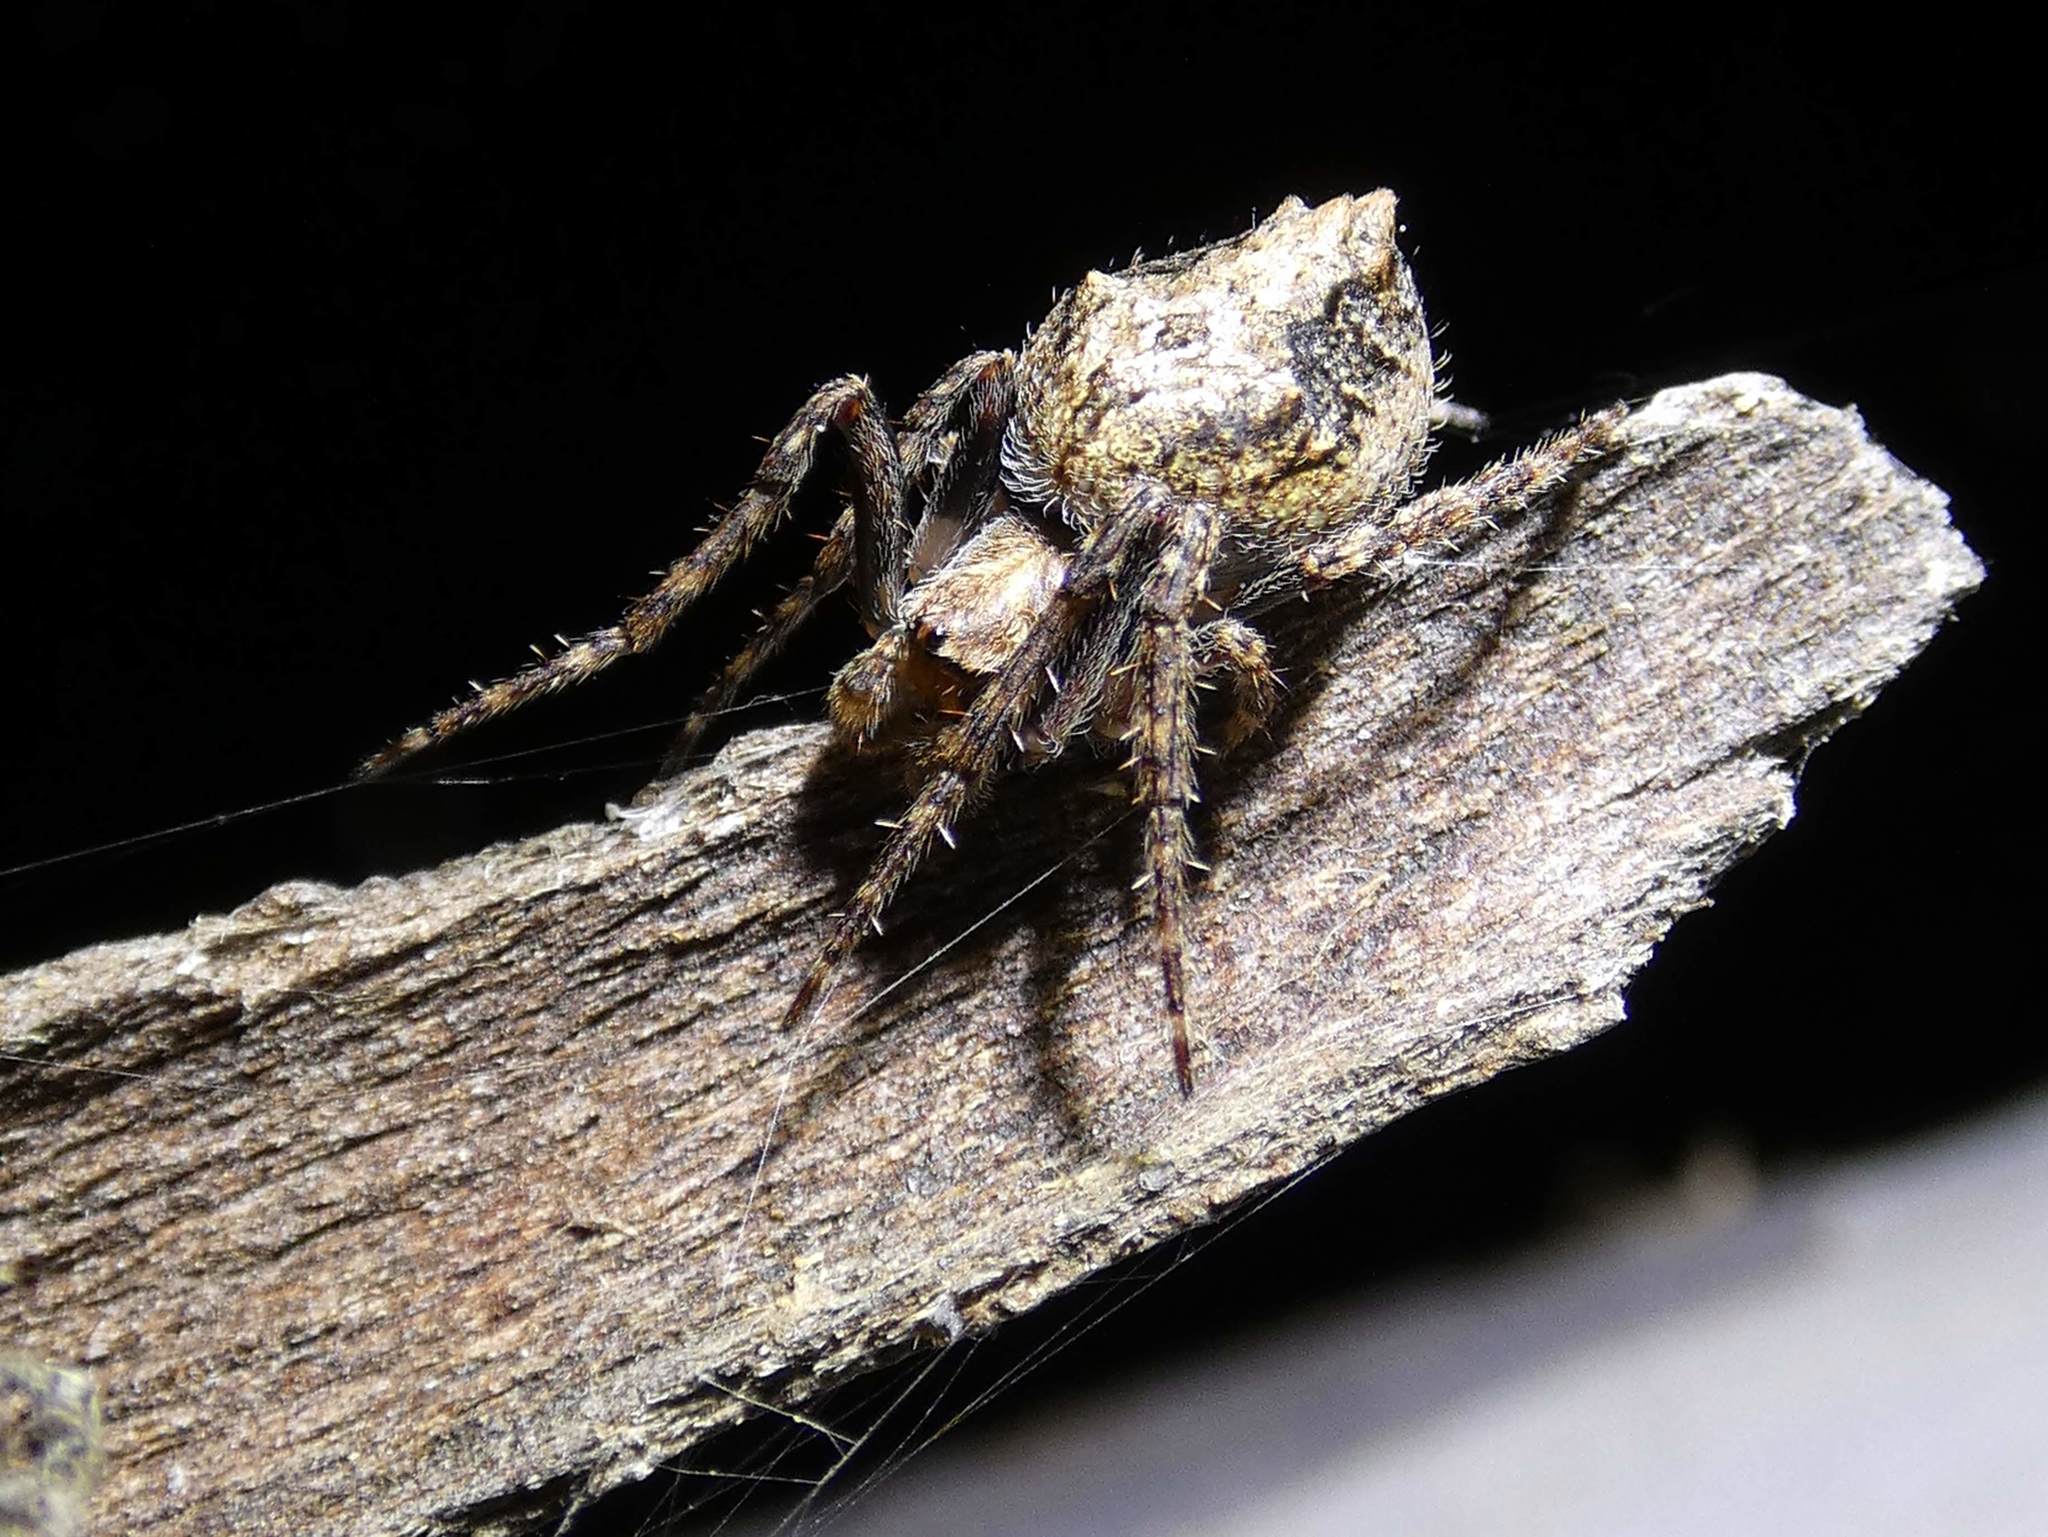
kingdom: Animalia
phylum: Arthropoda
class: Arachnida
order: Araneae
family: Araneidae
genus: Eriophora
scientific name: Eriophora pustulosa
